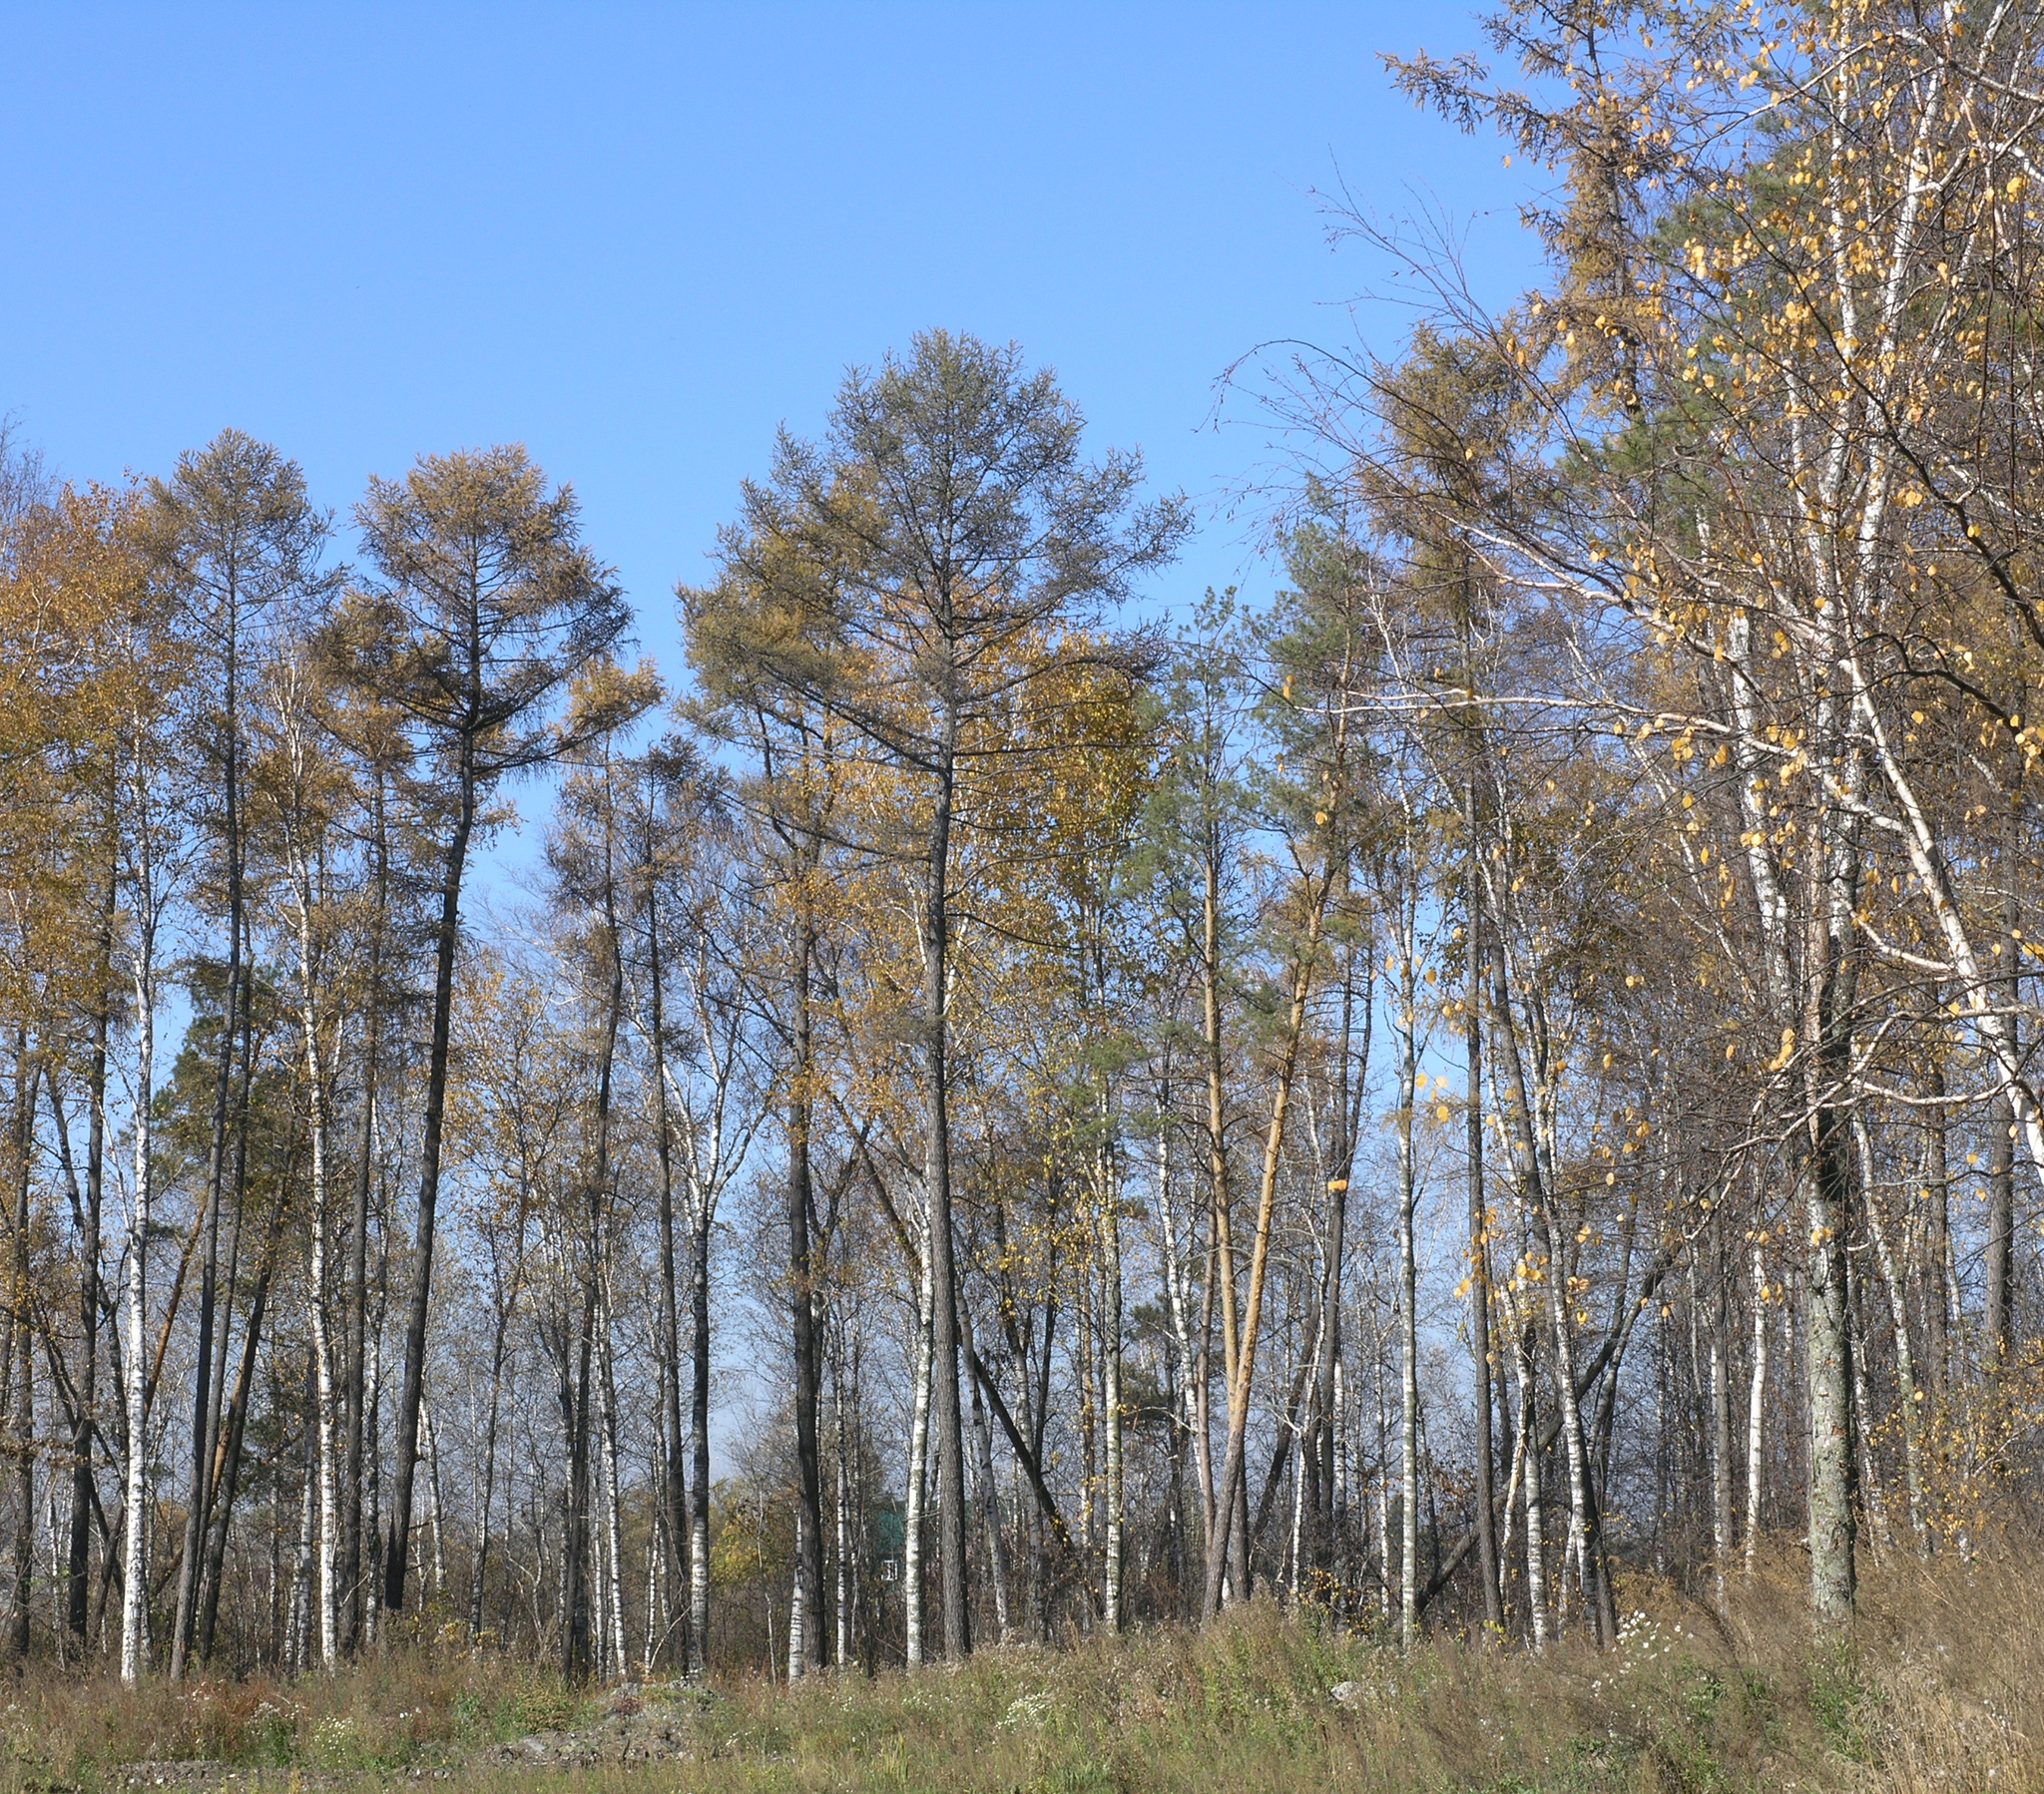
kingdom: Plantae
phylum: Tracheophyta
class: Pinopsida
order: Pinales
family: Pinaceae
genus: Larix
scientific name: Larix sibirica
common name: Siberian larch
